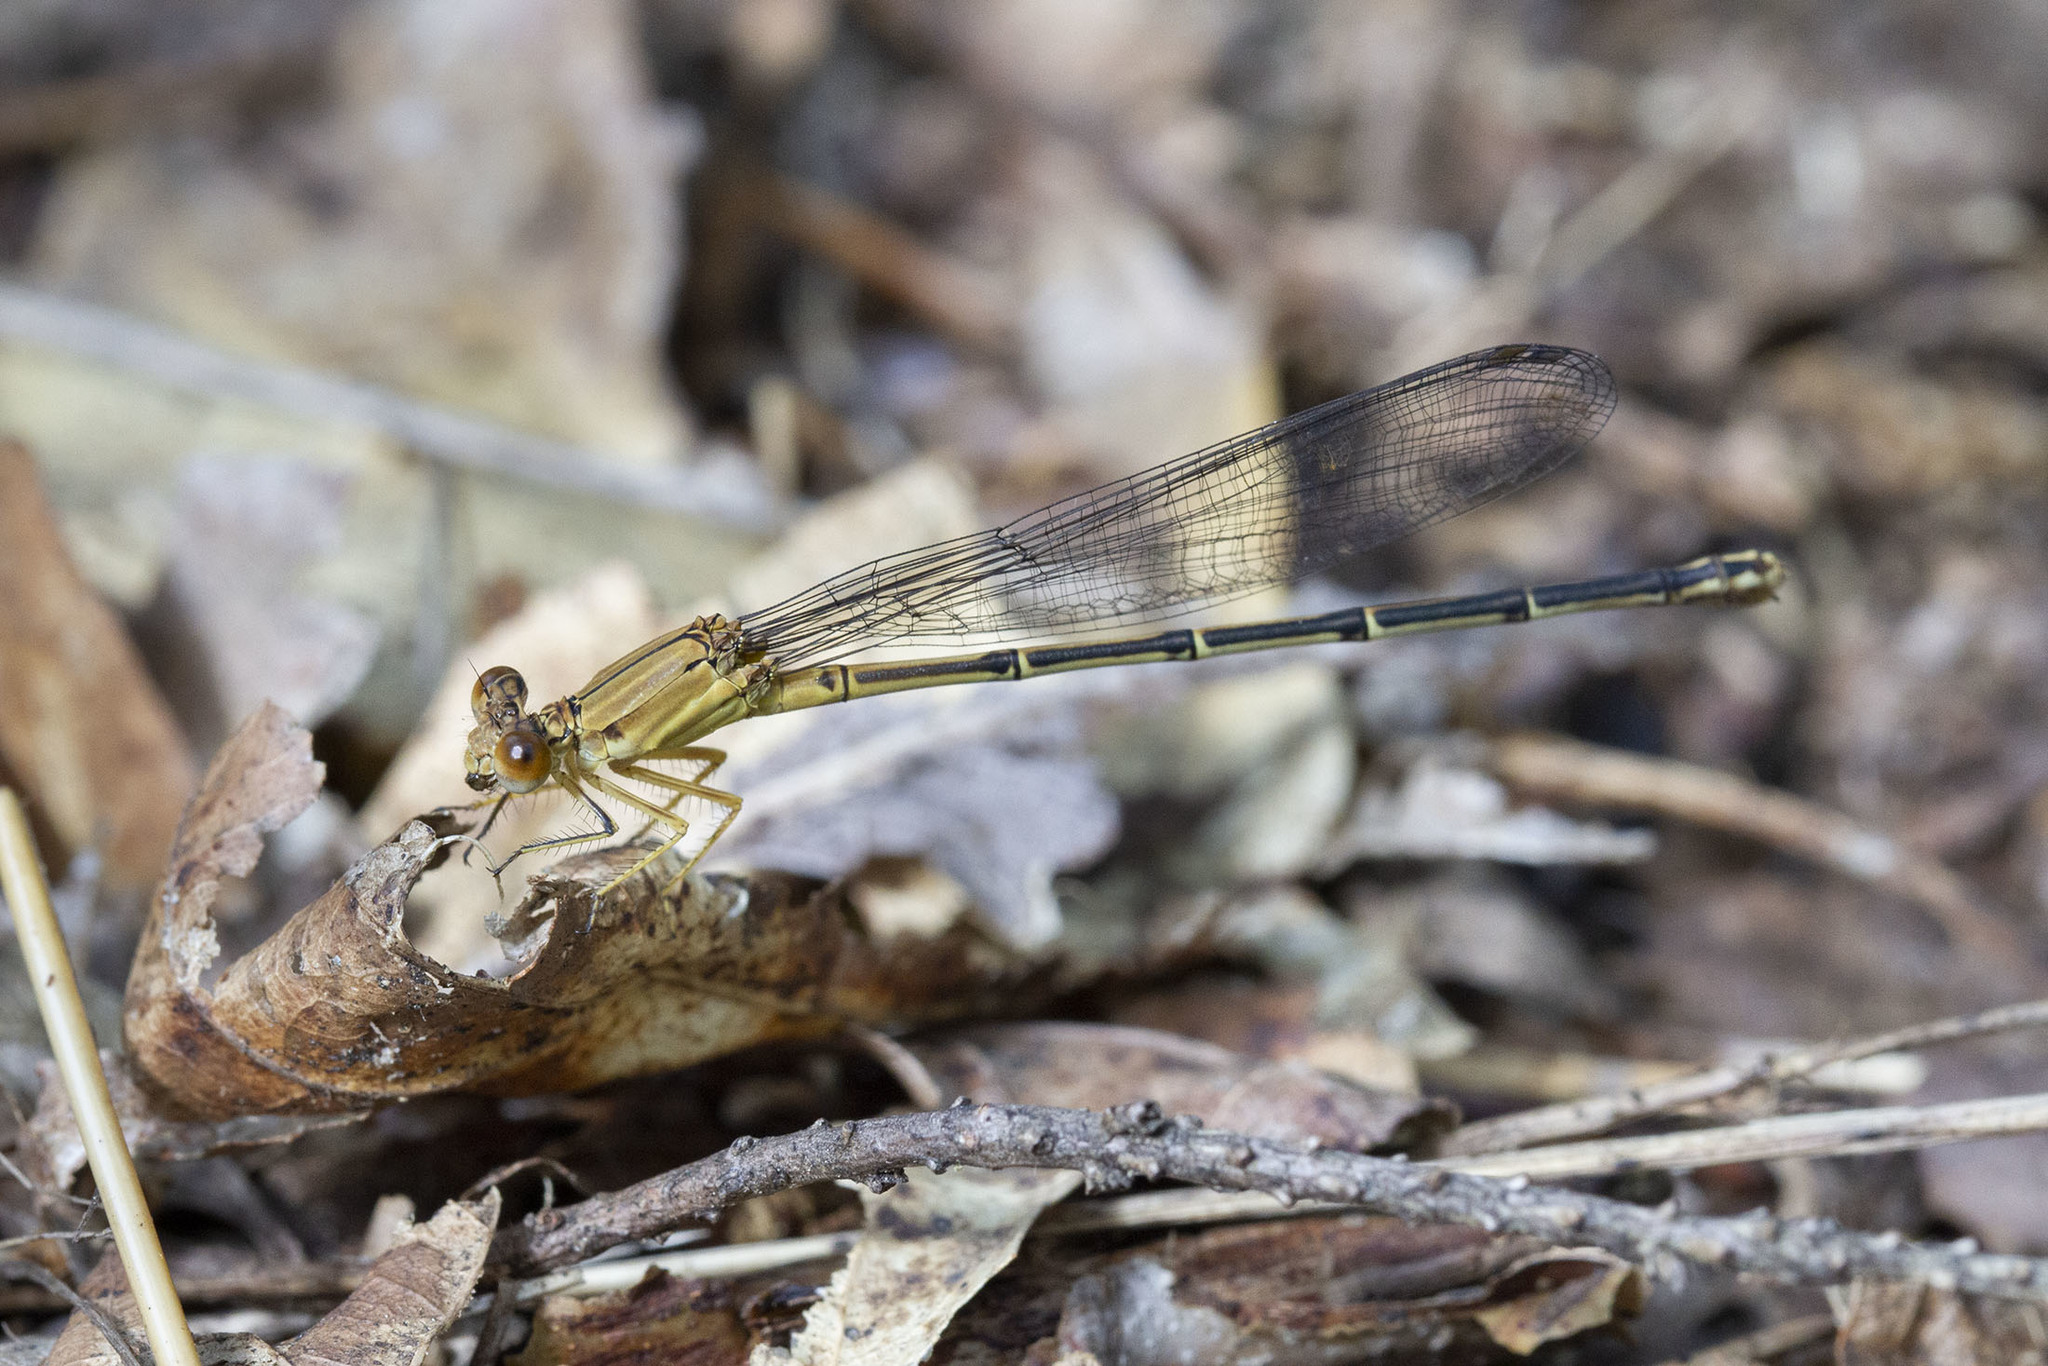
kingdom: Animalia
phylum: Arthropoda
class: Insecta
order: Odonata
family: Coenagrionidae
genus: Argia
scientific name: Argia apicalis
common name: Blue-fronted dancer
